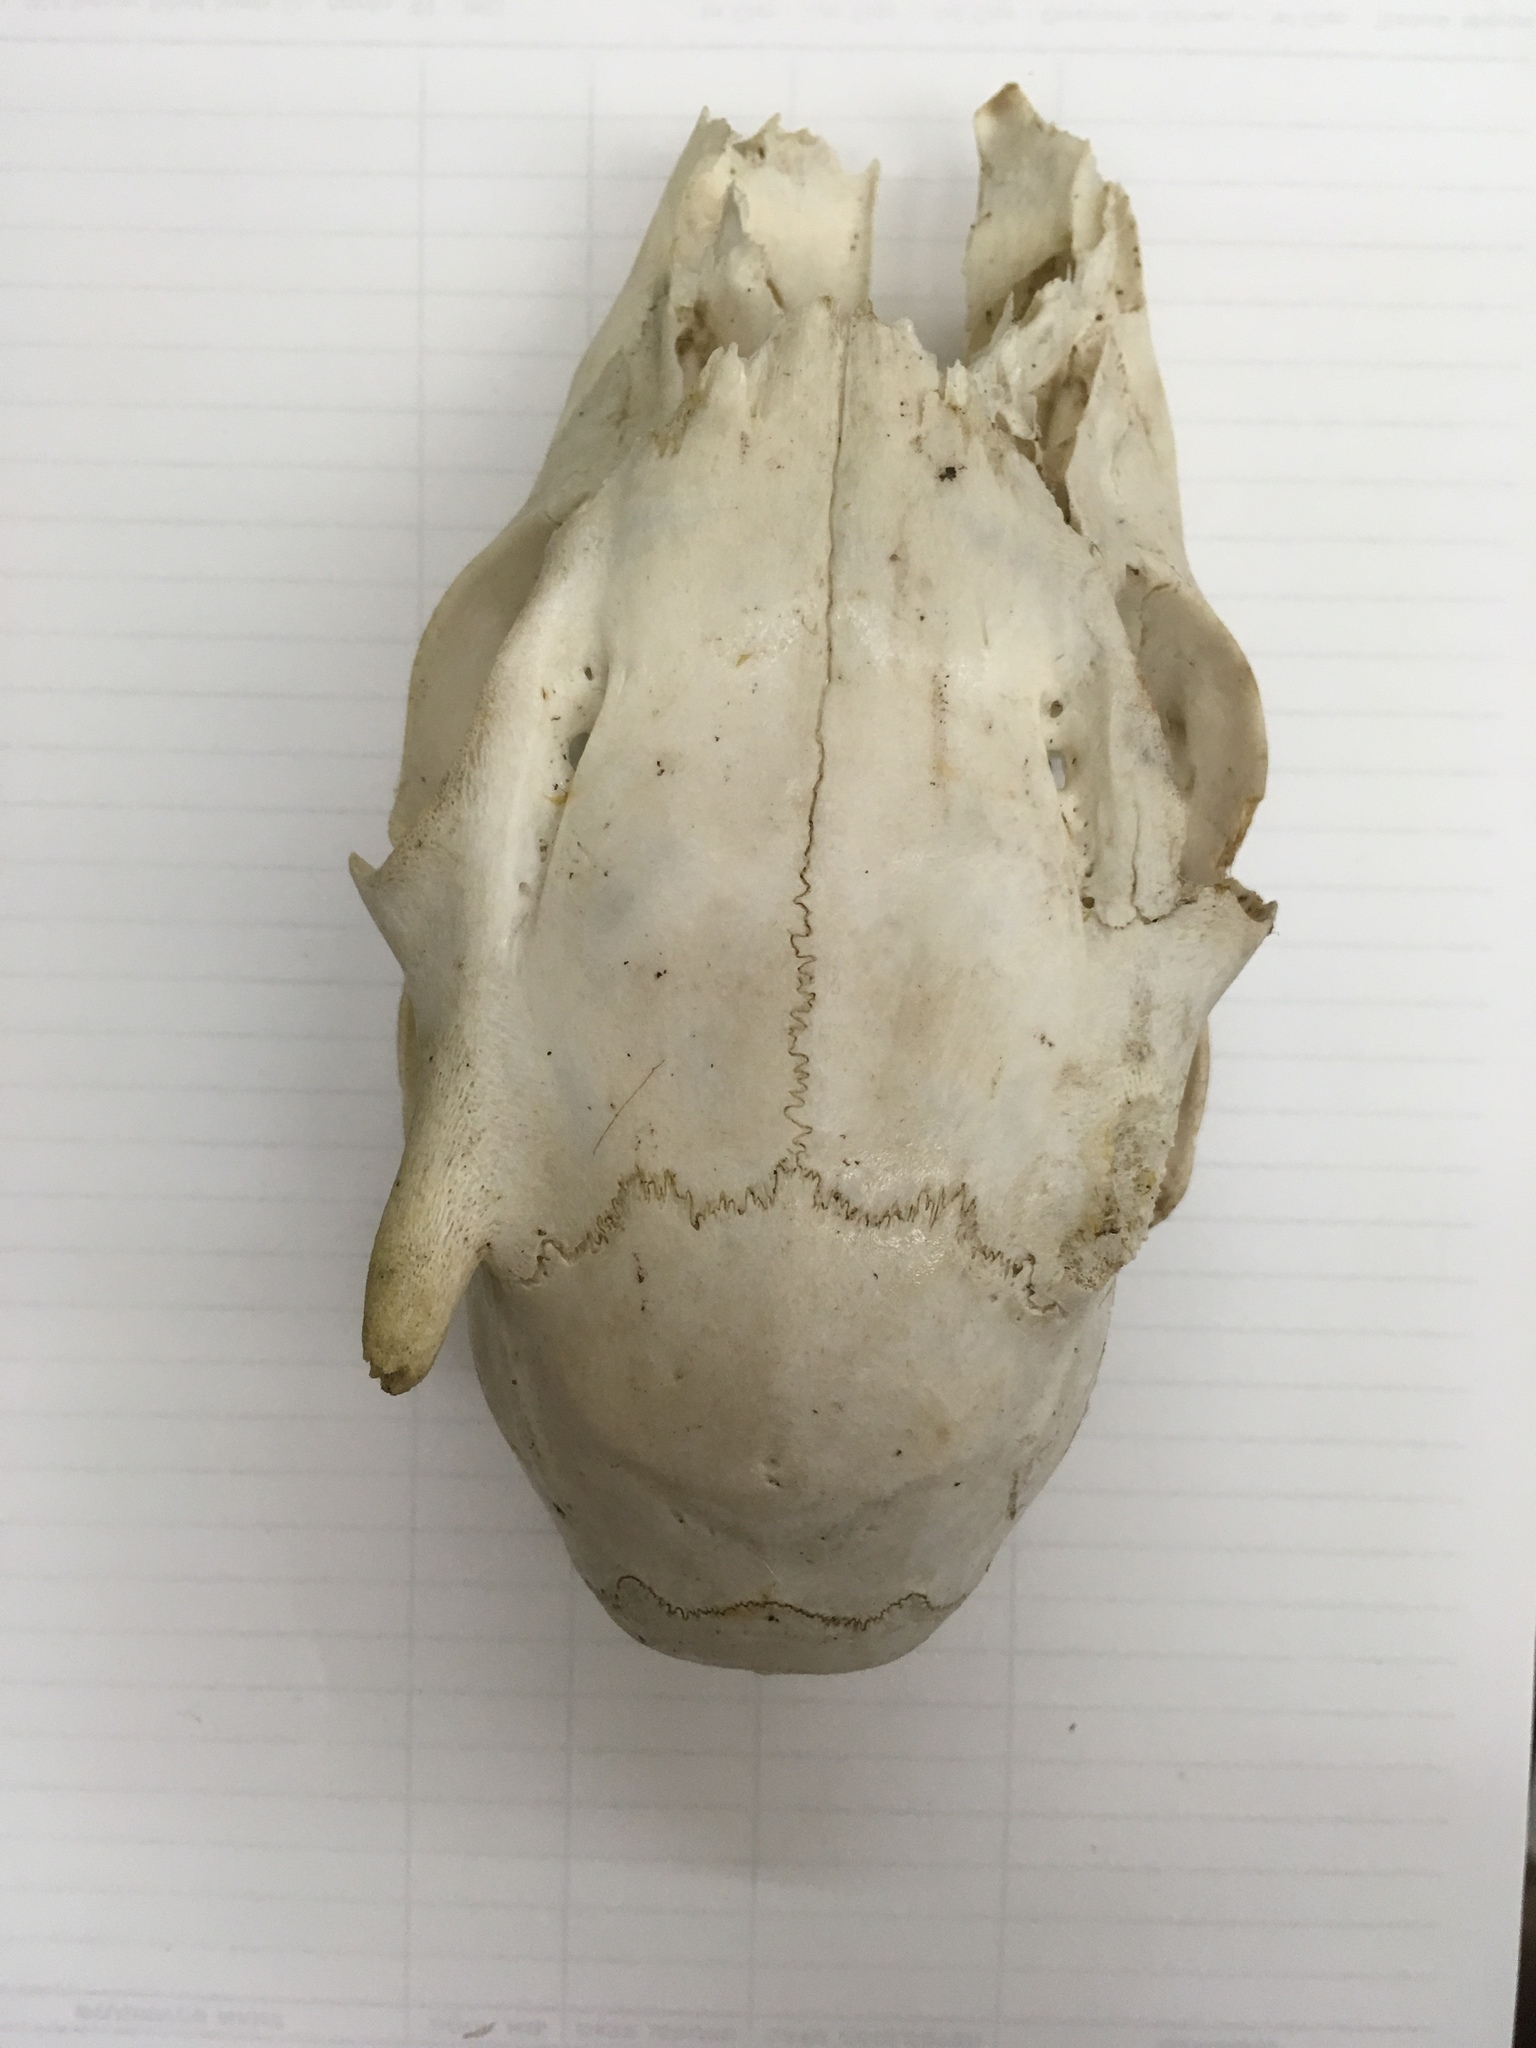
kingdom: Animalia
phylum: Chordata
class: Mammalia
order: Artiodactyla
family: Cervidae
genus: Odocoileus
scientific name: Odocoileus virginianus
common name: White-tailed deer
